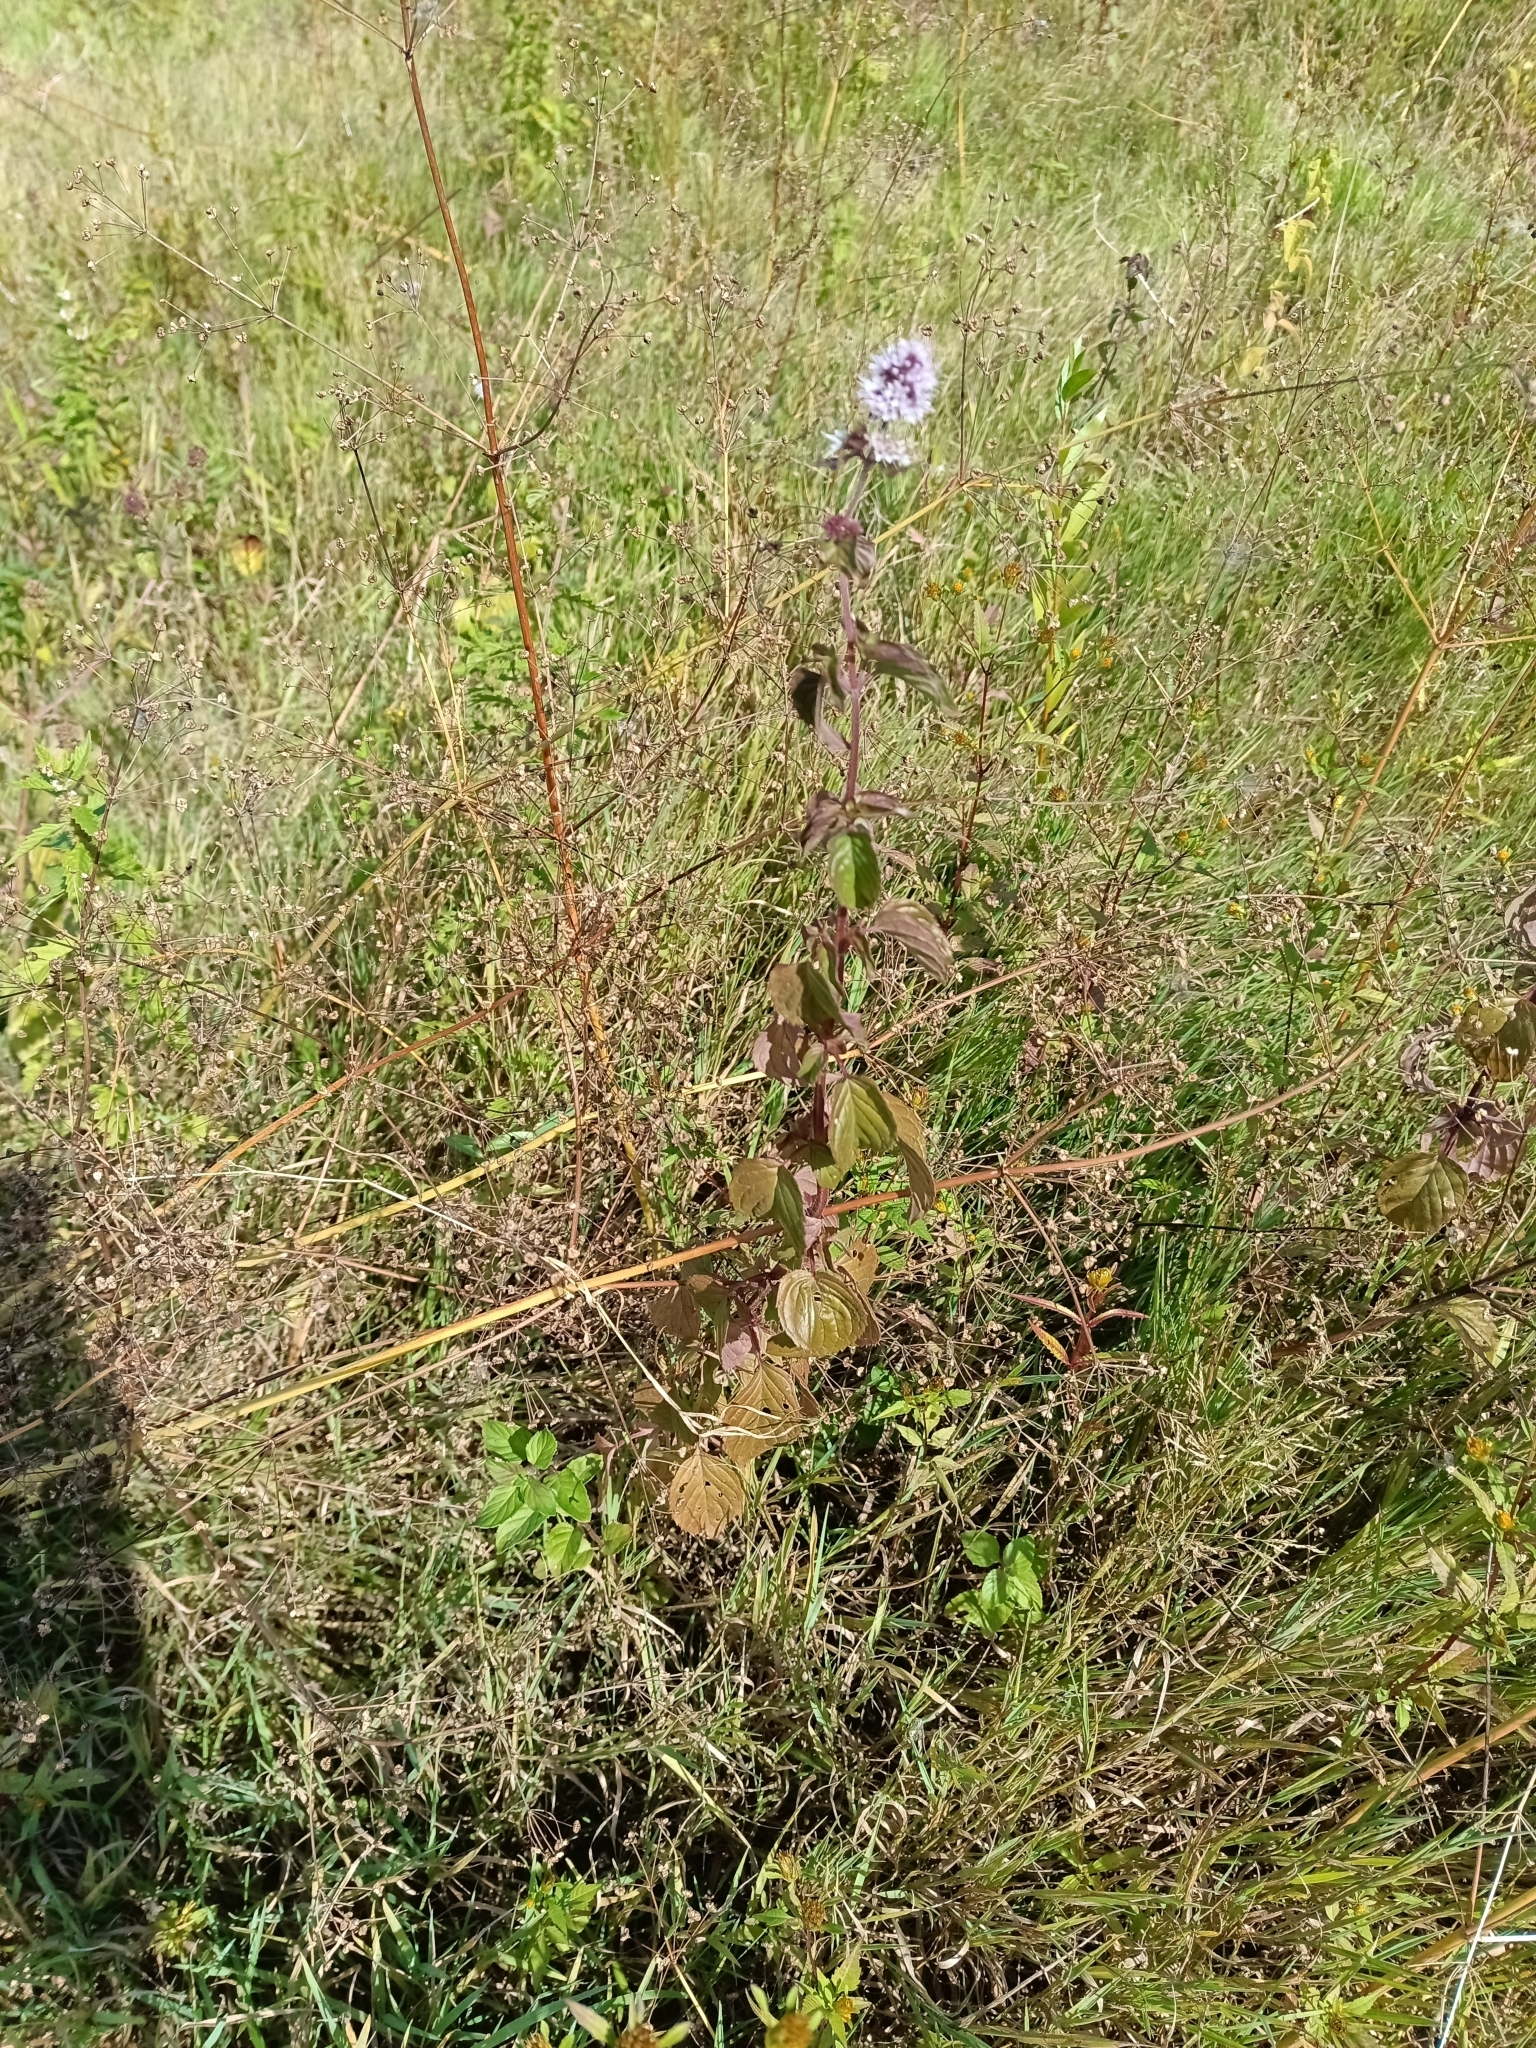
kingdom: Plantae
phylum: Tracheophyta
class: Magnoliopsida
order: Lamiales
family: Lamiaceae
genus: Mentha
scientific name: Mentha aquatica
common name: Water mint
